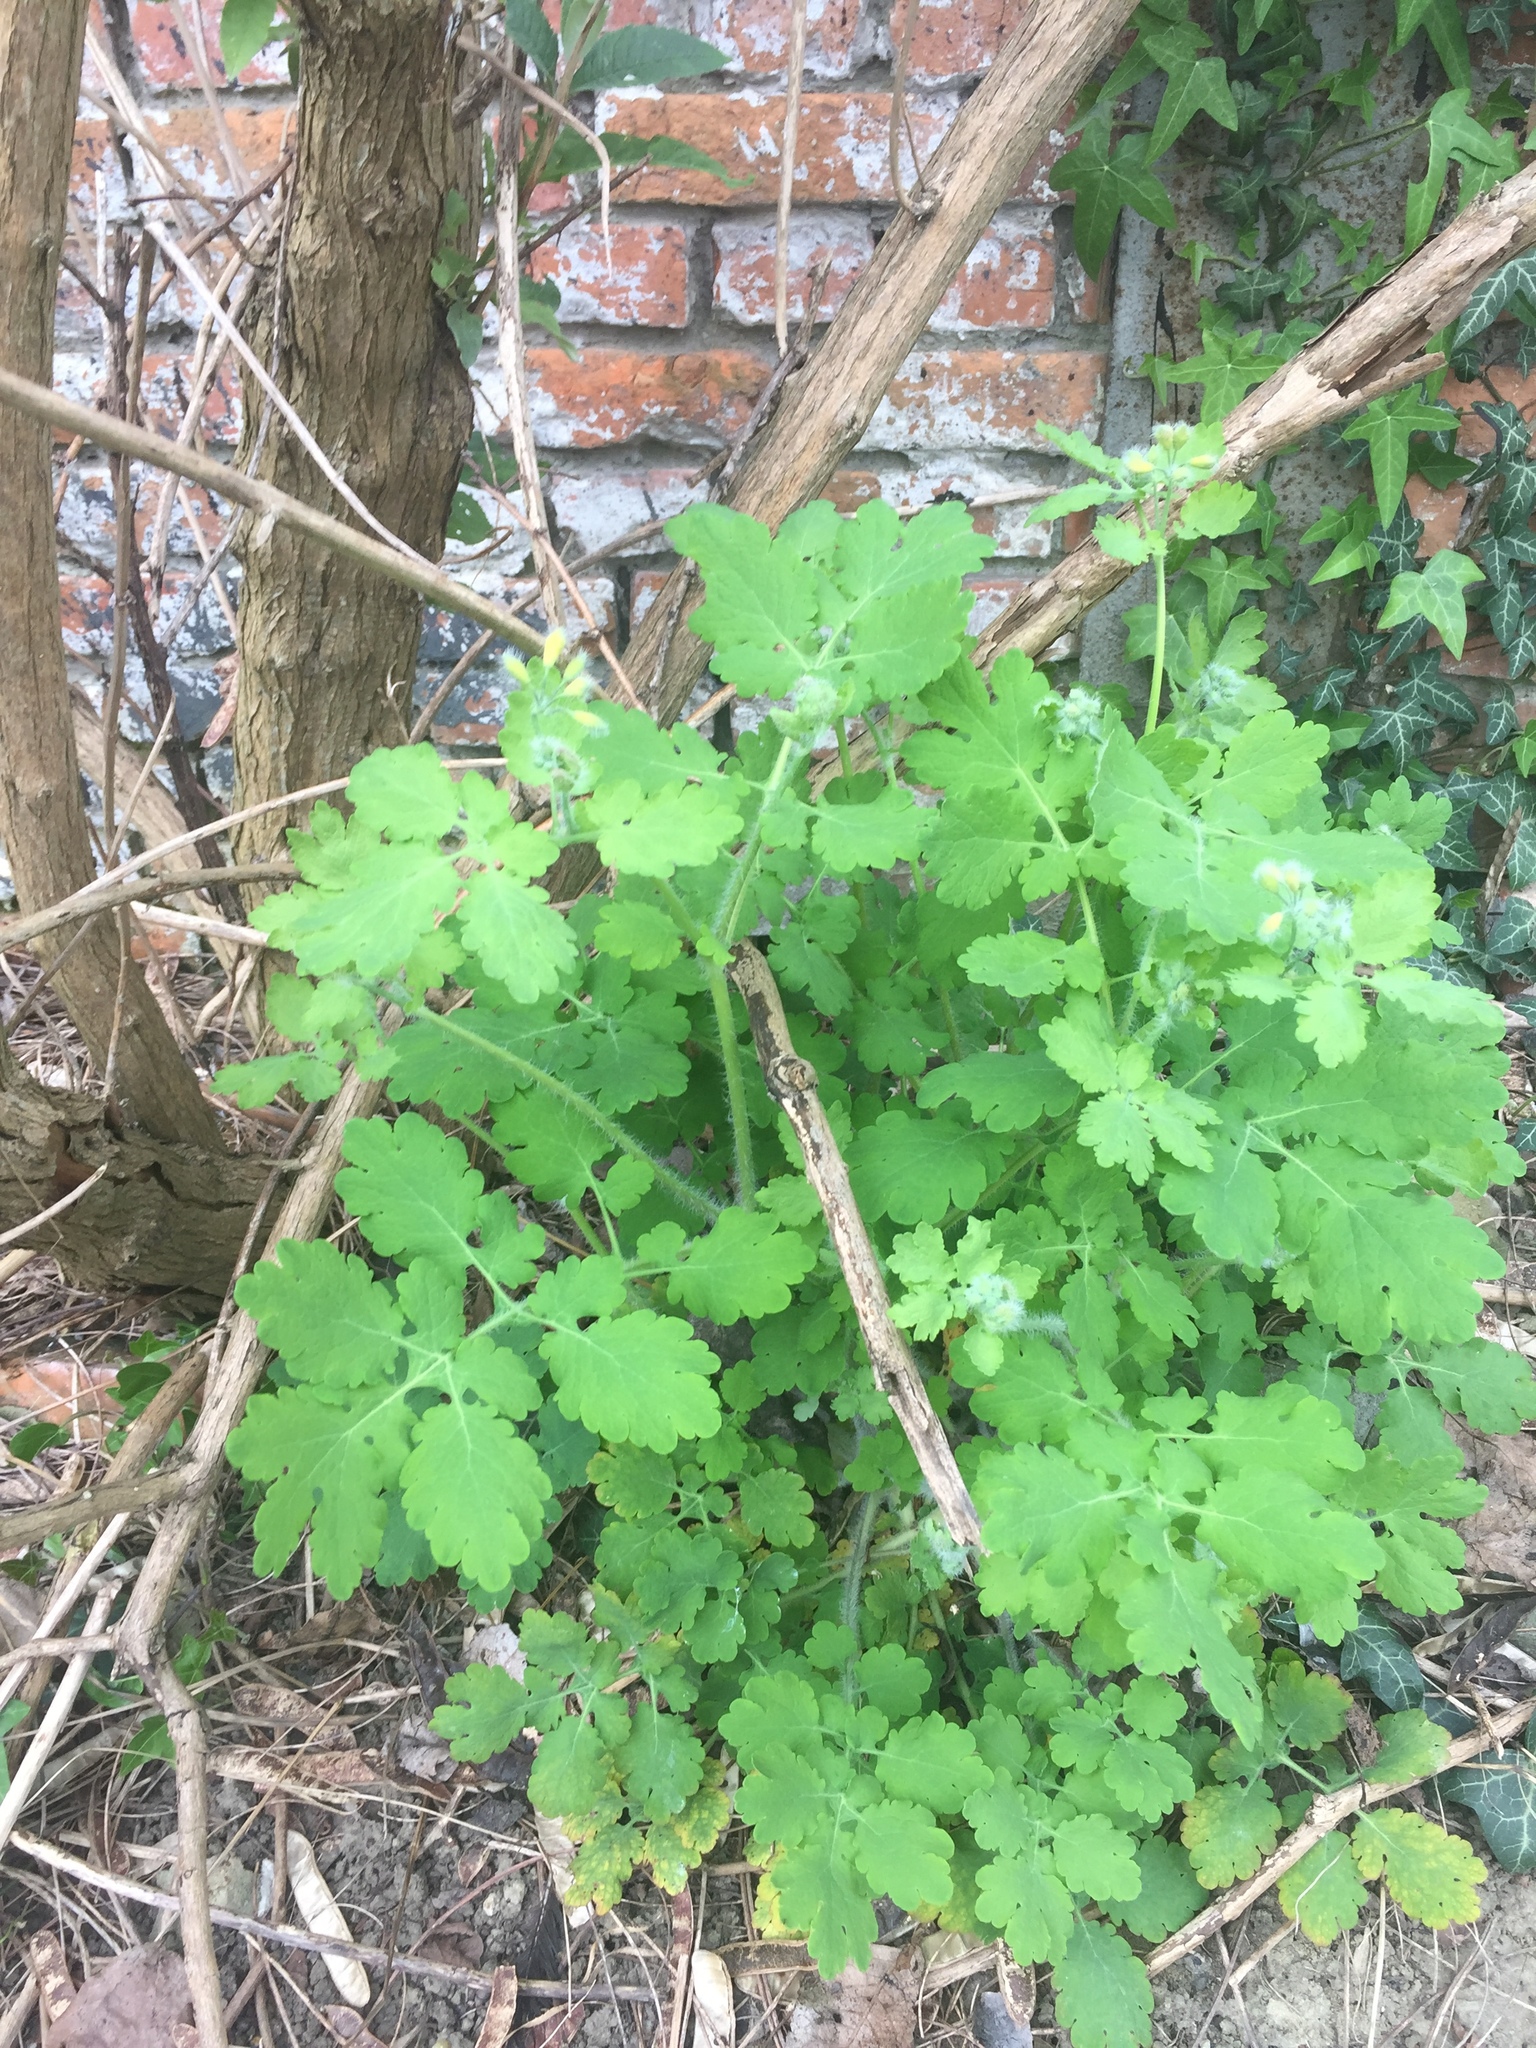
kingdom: Plantae
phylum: Tracheophyta
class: Magnoliopsida
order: Ranunculales
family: Papaveraceae
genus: Chelidonium
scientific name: Chelidonium majus
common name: Greater celandine
